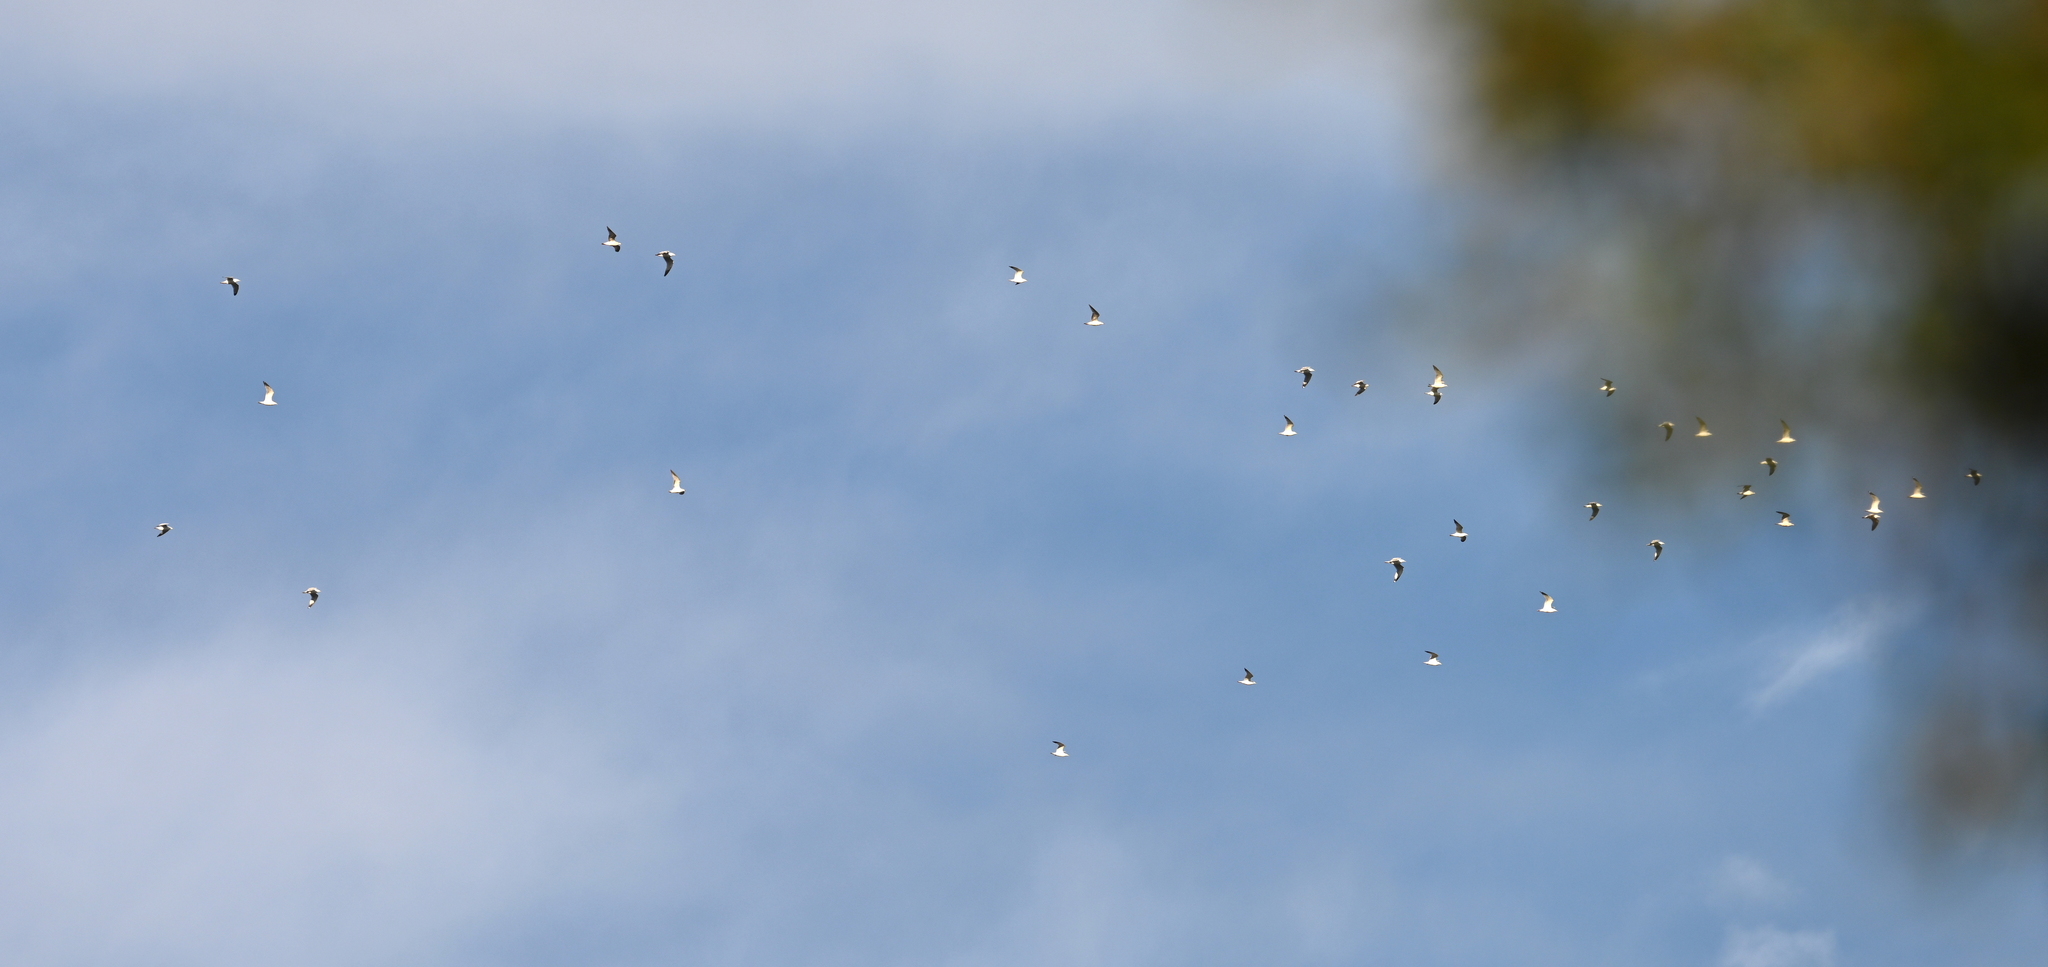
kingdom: Animalia
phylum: Chordata
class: Aves
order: Charadriiformes
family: Laridae
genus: Larus
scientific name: Larus delawarensis
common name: Ring-billed gull
